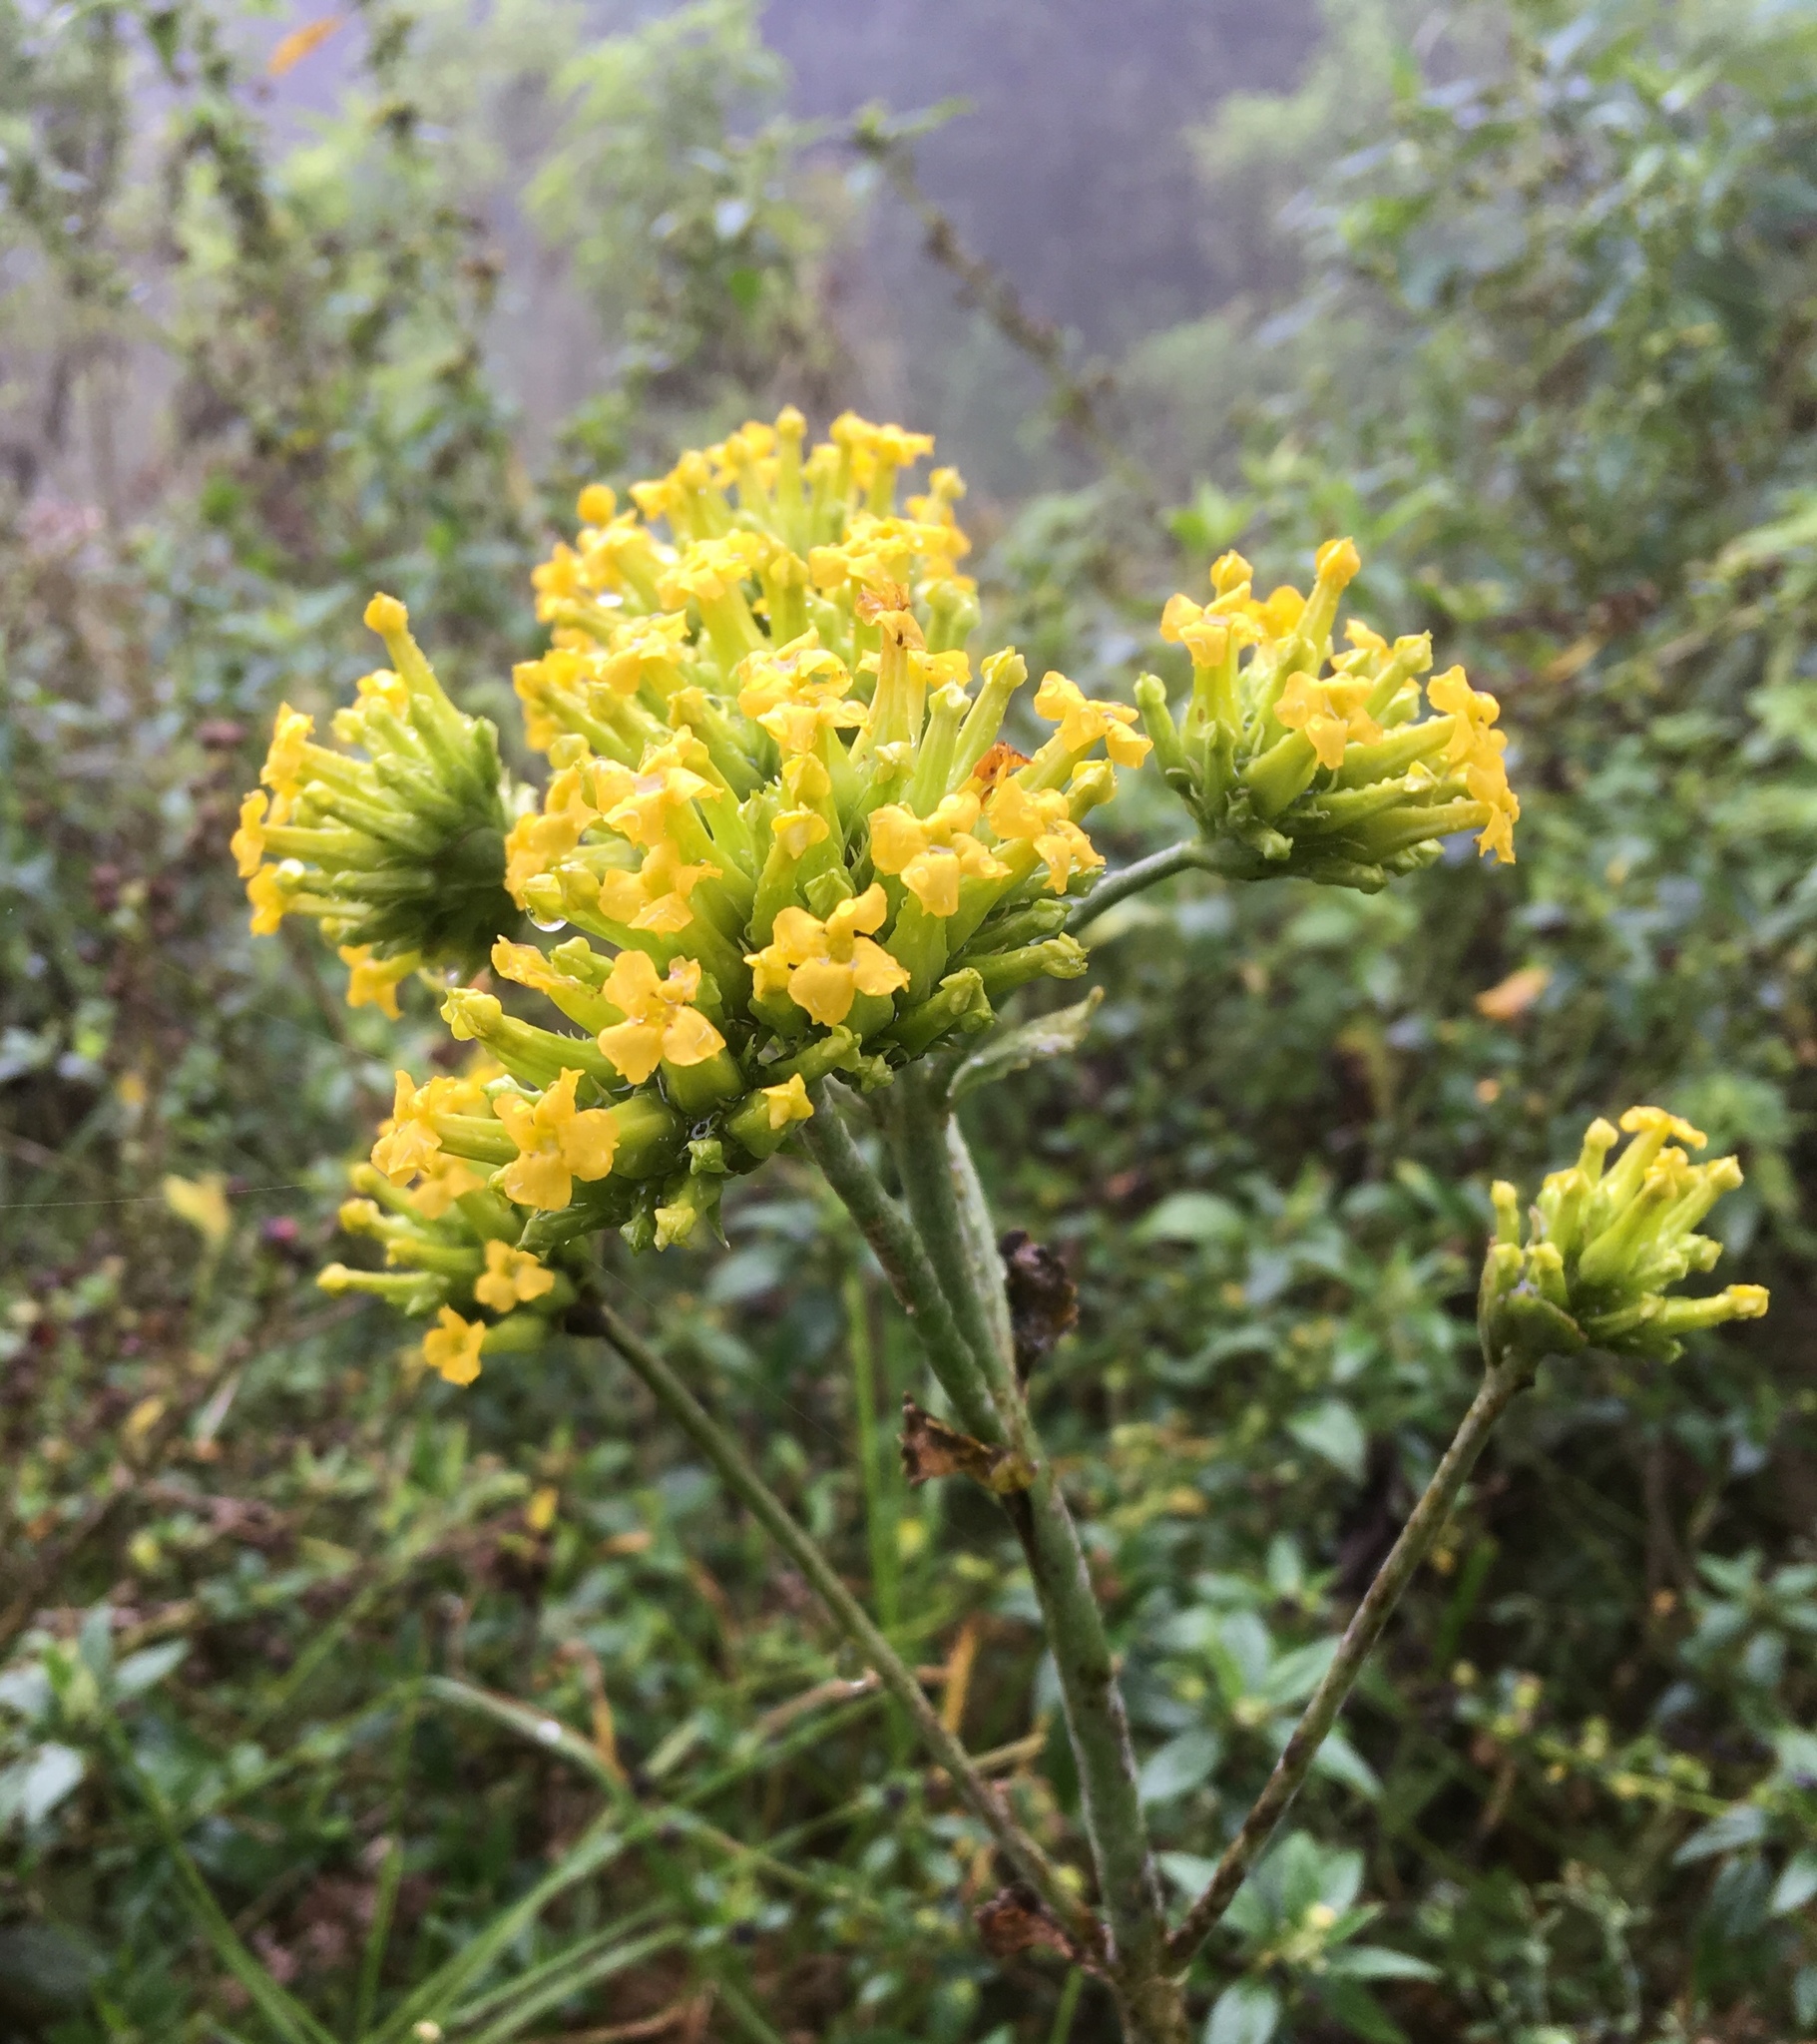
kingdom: Plantae
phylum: Tracheophyta
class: Magnoliopsida
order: Saxifragales
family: Crassulaceae
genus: Kalanchoe
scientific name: Kalanchoe densiflora
